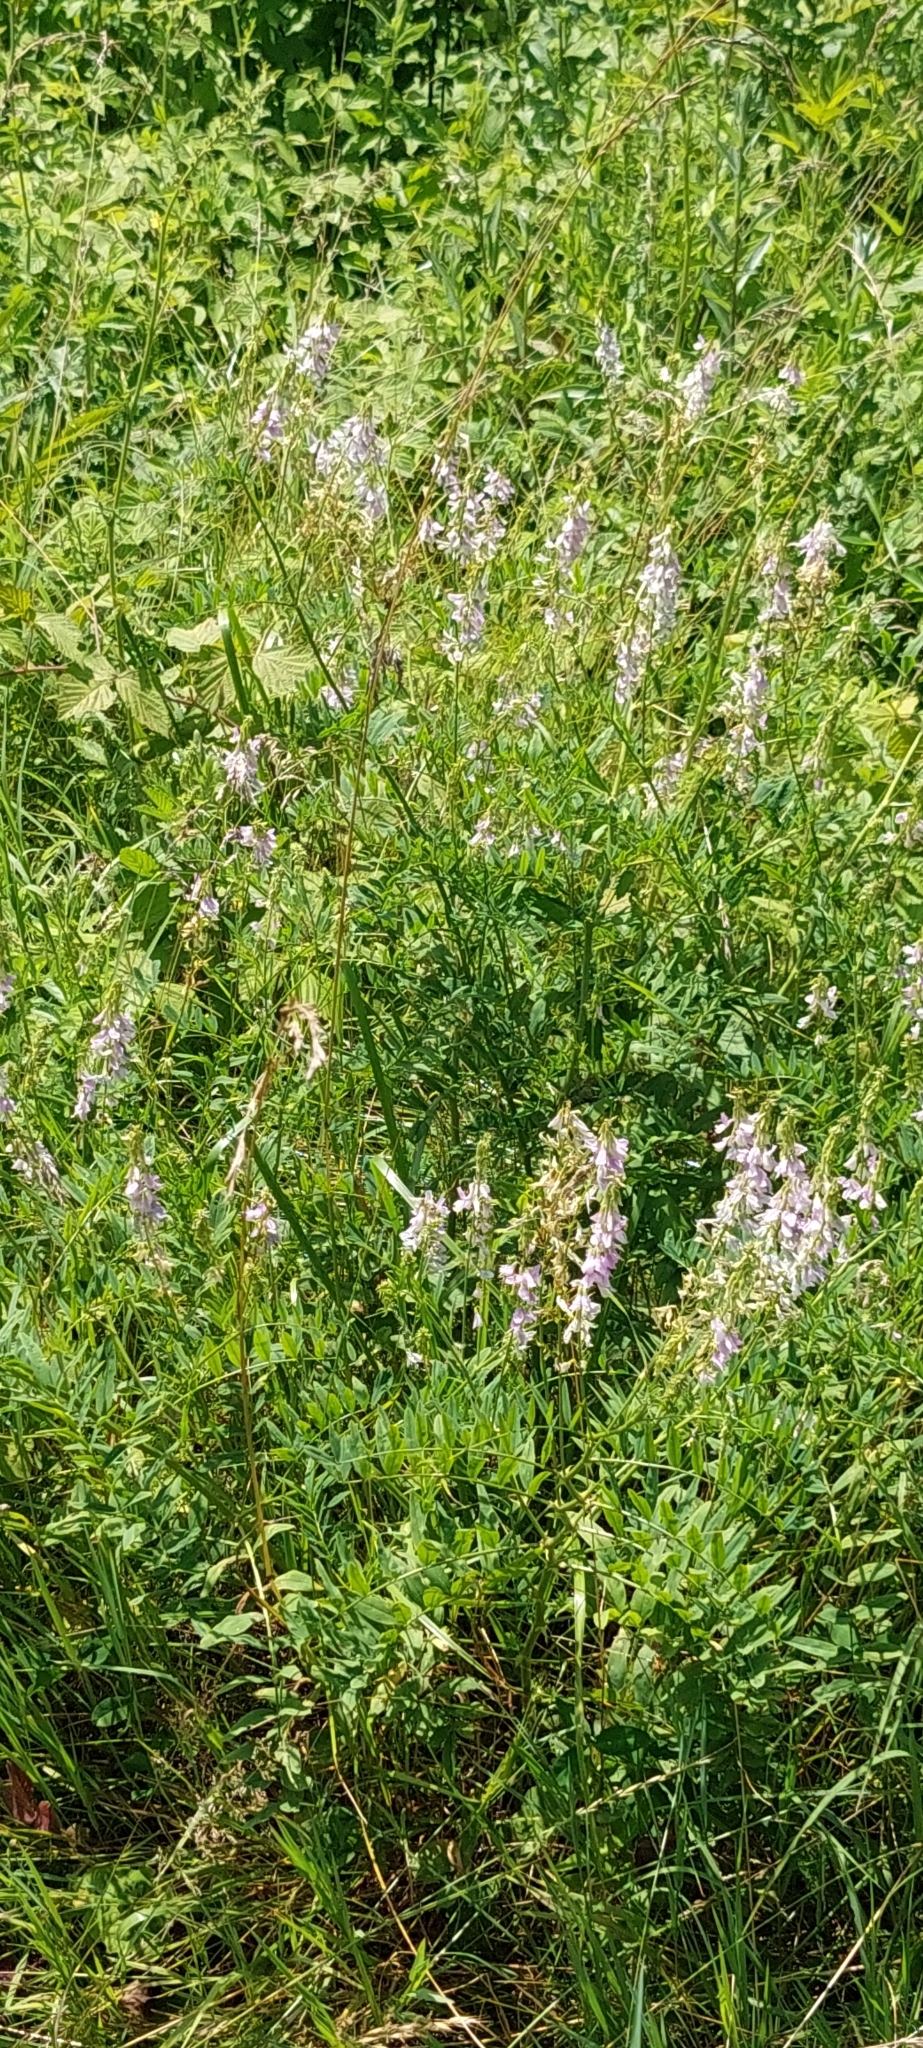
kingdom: Plantae
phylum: Tracheophyta
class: Magnoliopsida
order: Fabales
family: Fabaceae
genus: Galega
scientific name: Galega officinalis
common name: Goat's-rue
